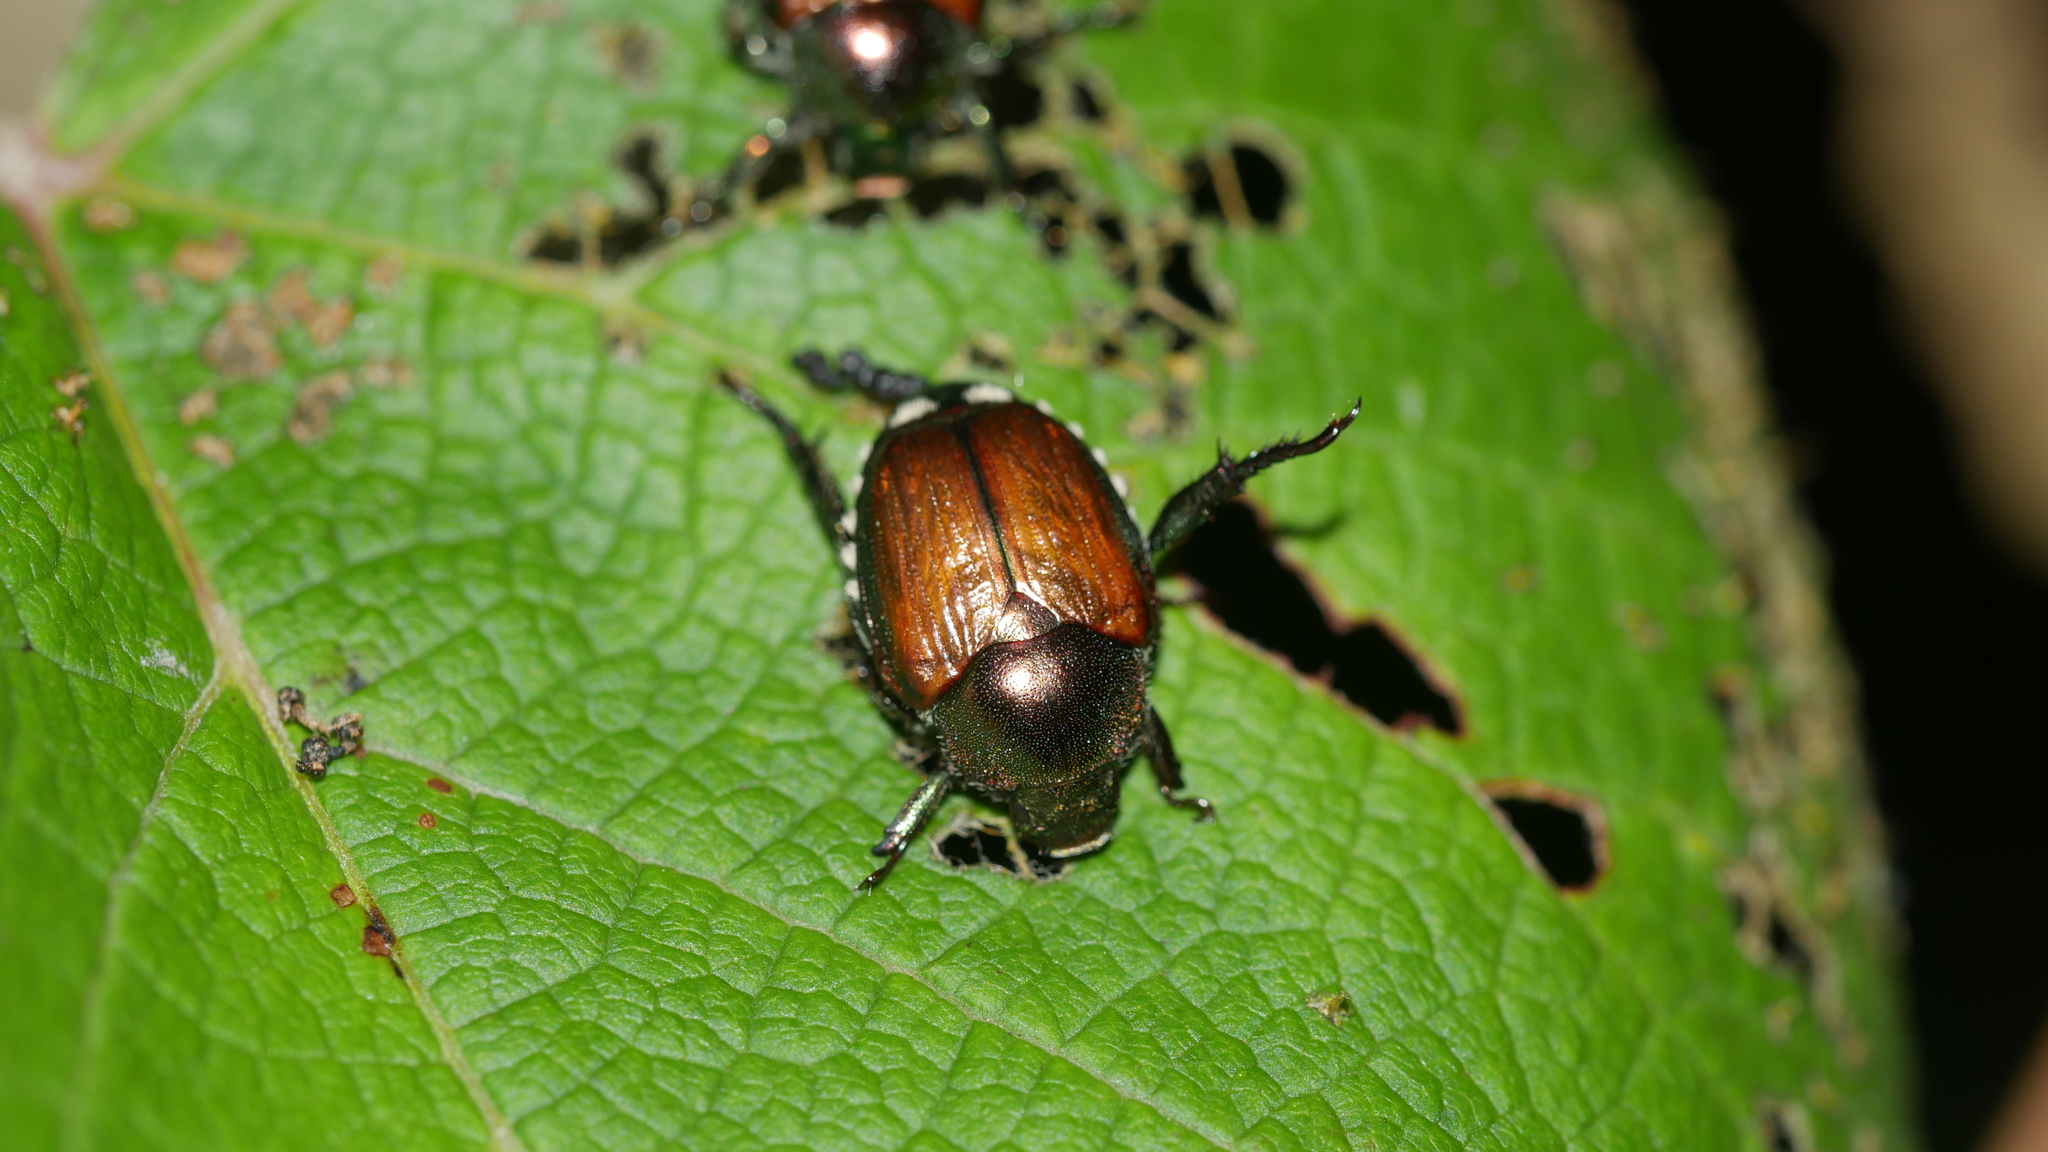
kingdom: Animalia
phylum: Arthropoda
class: Insecta
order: Coleoptera
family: Scarabaeidae
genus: Popillia
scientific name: Popillia japonica
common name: Japanese beetle
